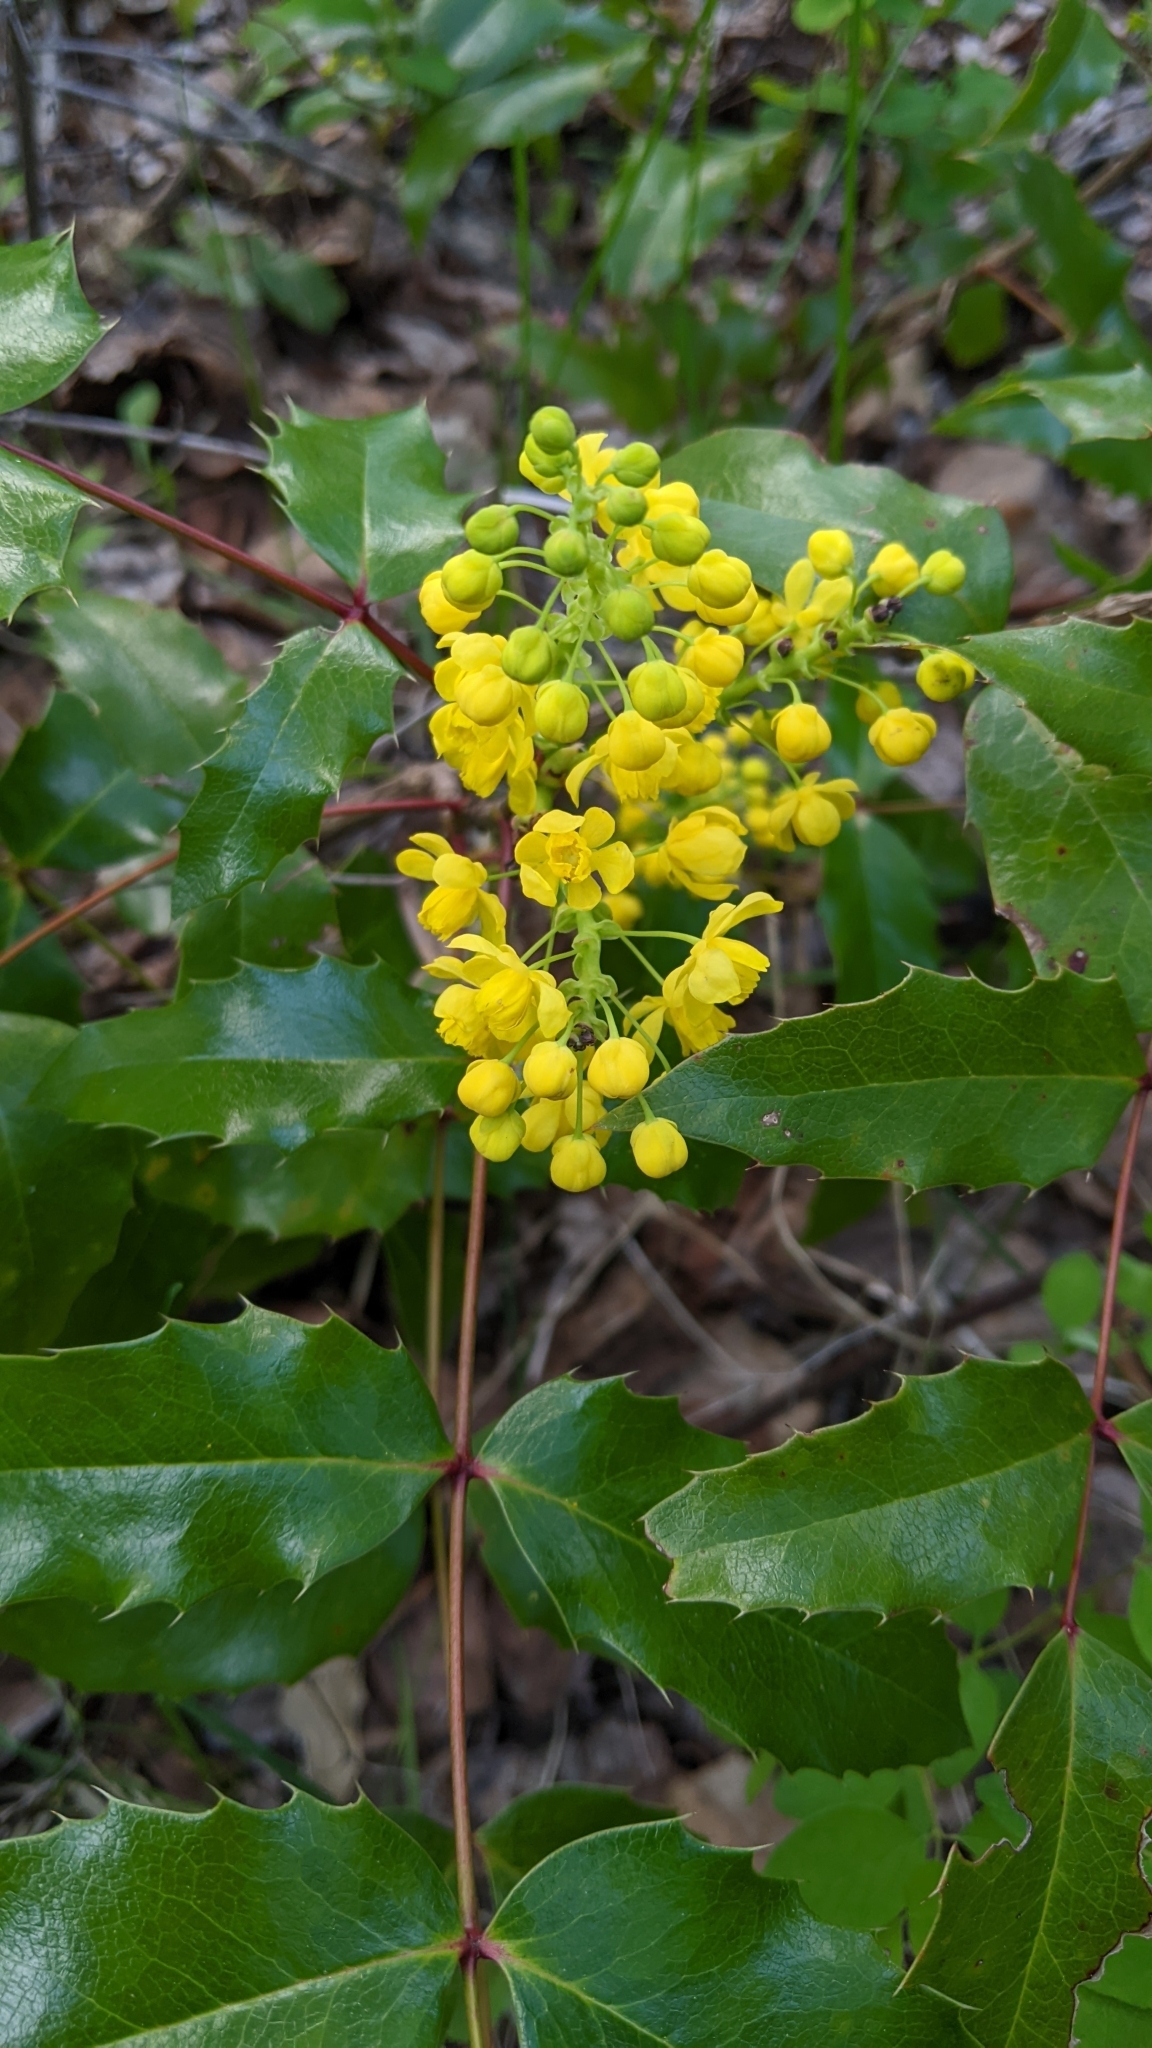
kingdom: Plantae
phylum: Tracheophyta
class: Magnoliopsida
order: Ranunculales
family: Berberidaceae
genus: Mahonia
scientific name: Mahonia aquifolium
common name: Oregon-grape
